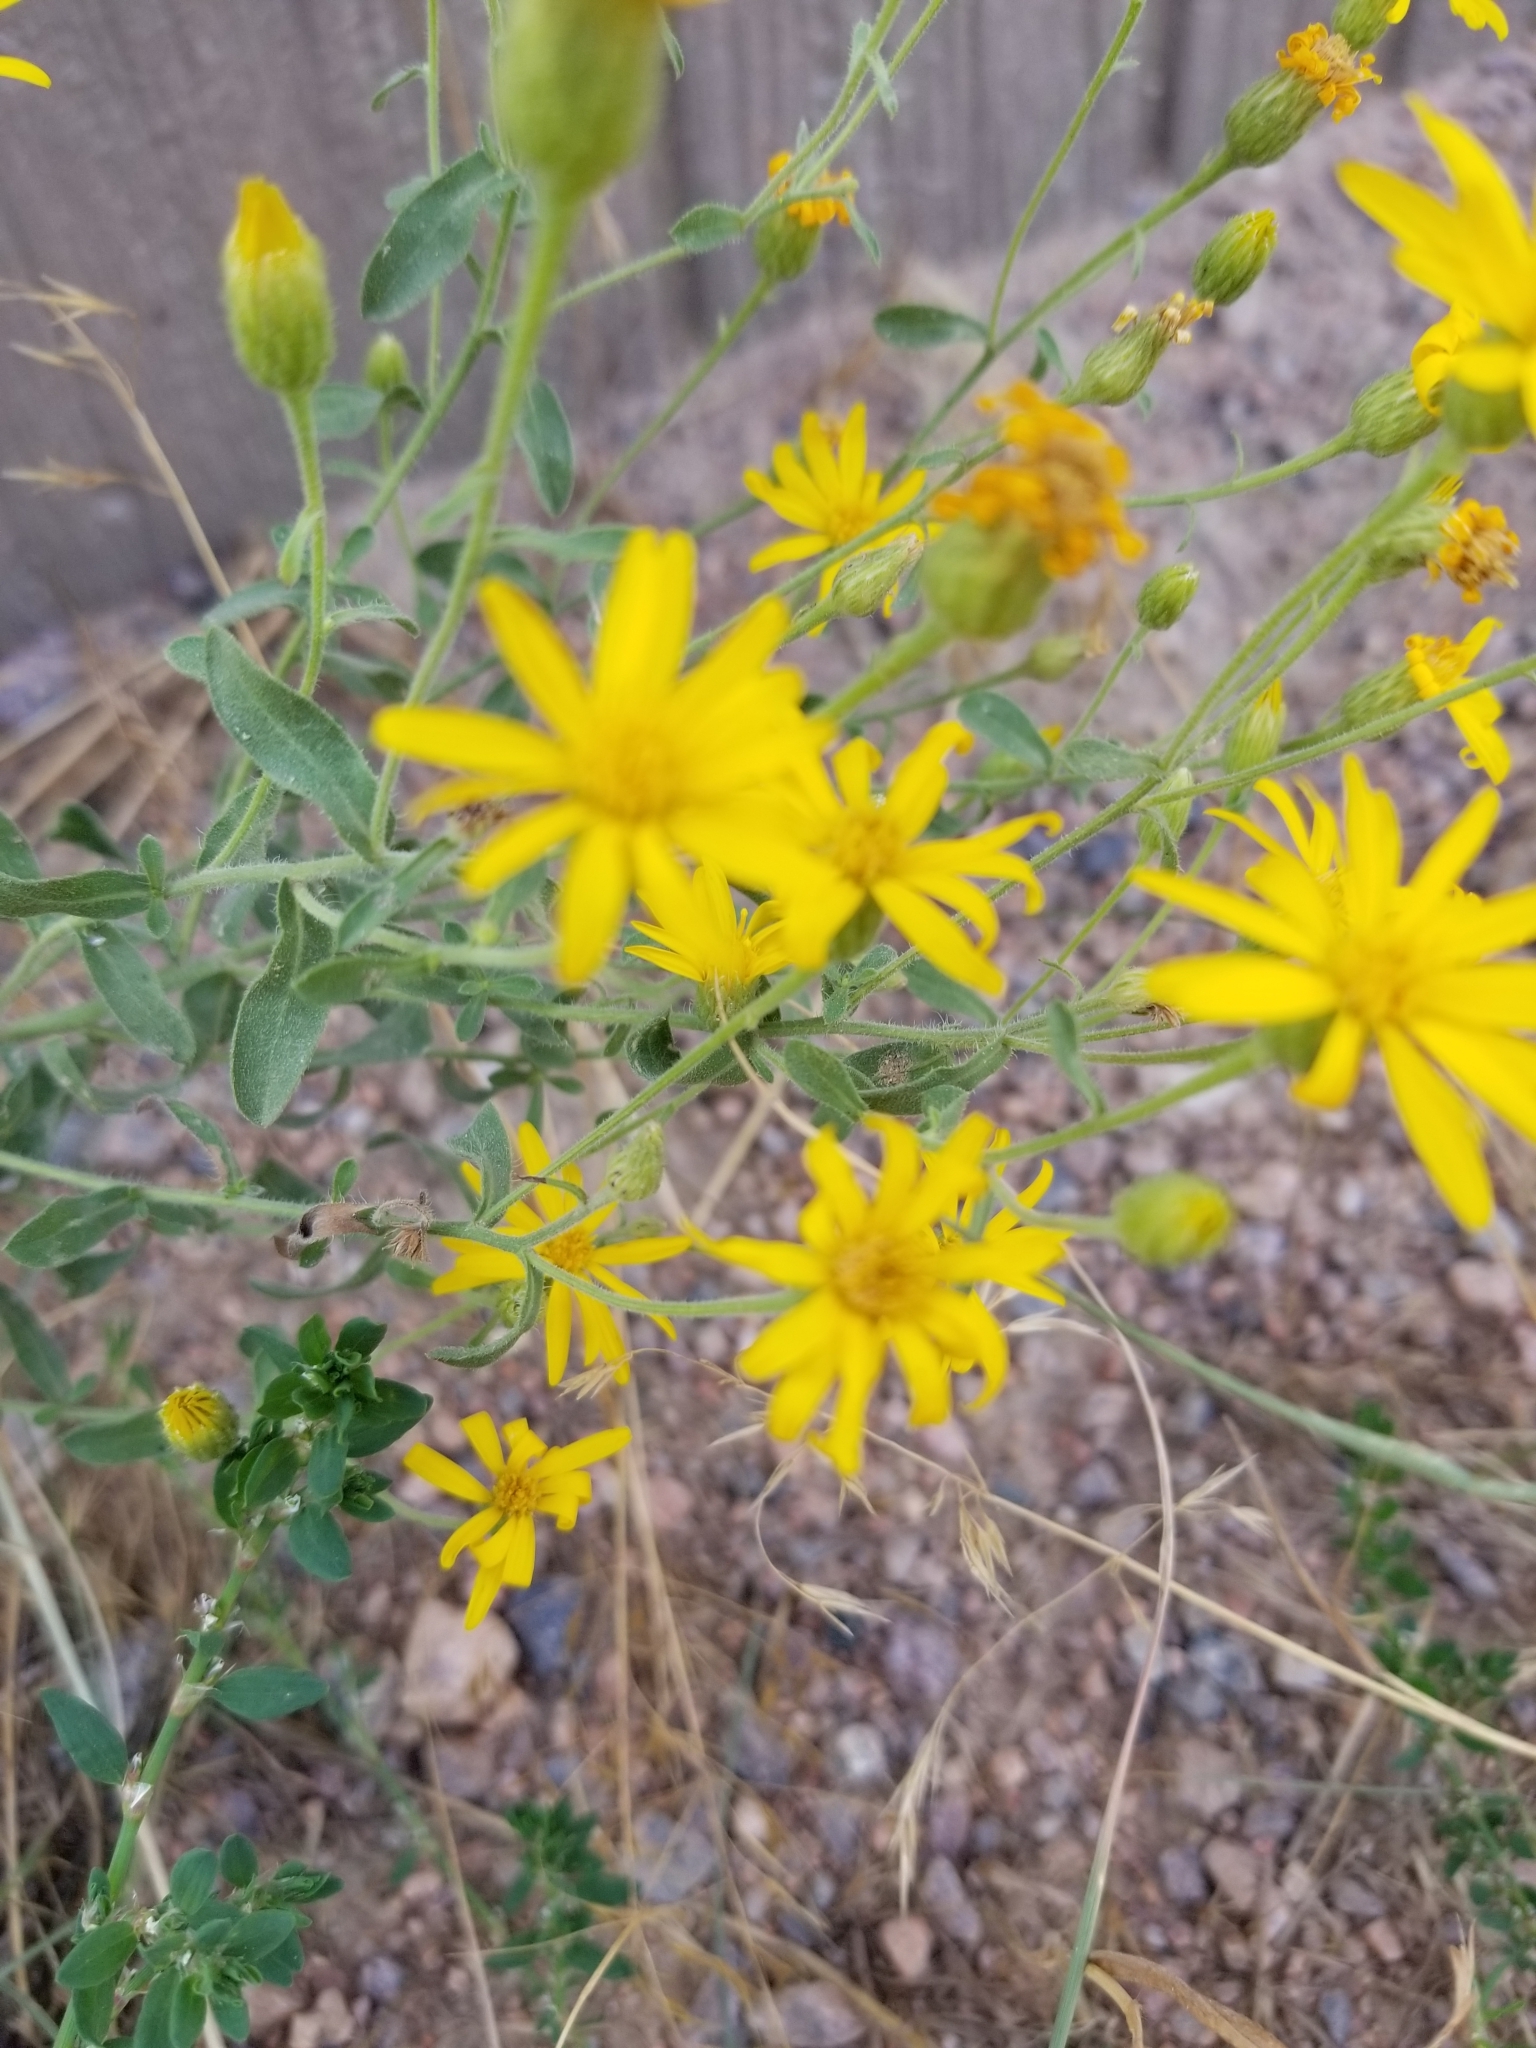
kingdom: Plantae
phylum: Tracheophyta
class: Magnoliopsida
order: Asterales
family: Asteraceae
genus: Heterotheca
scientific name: Heterotheca villosa
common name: Hairy false goldenaster
